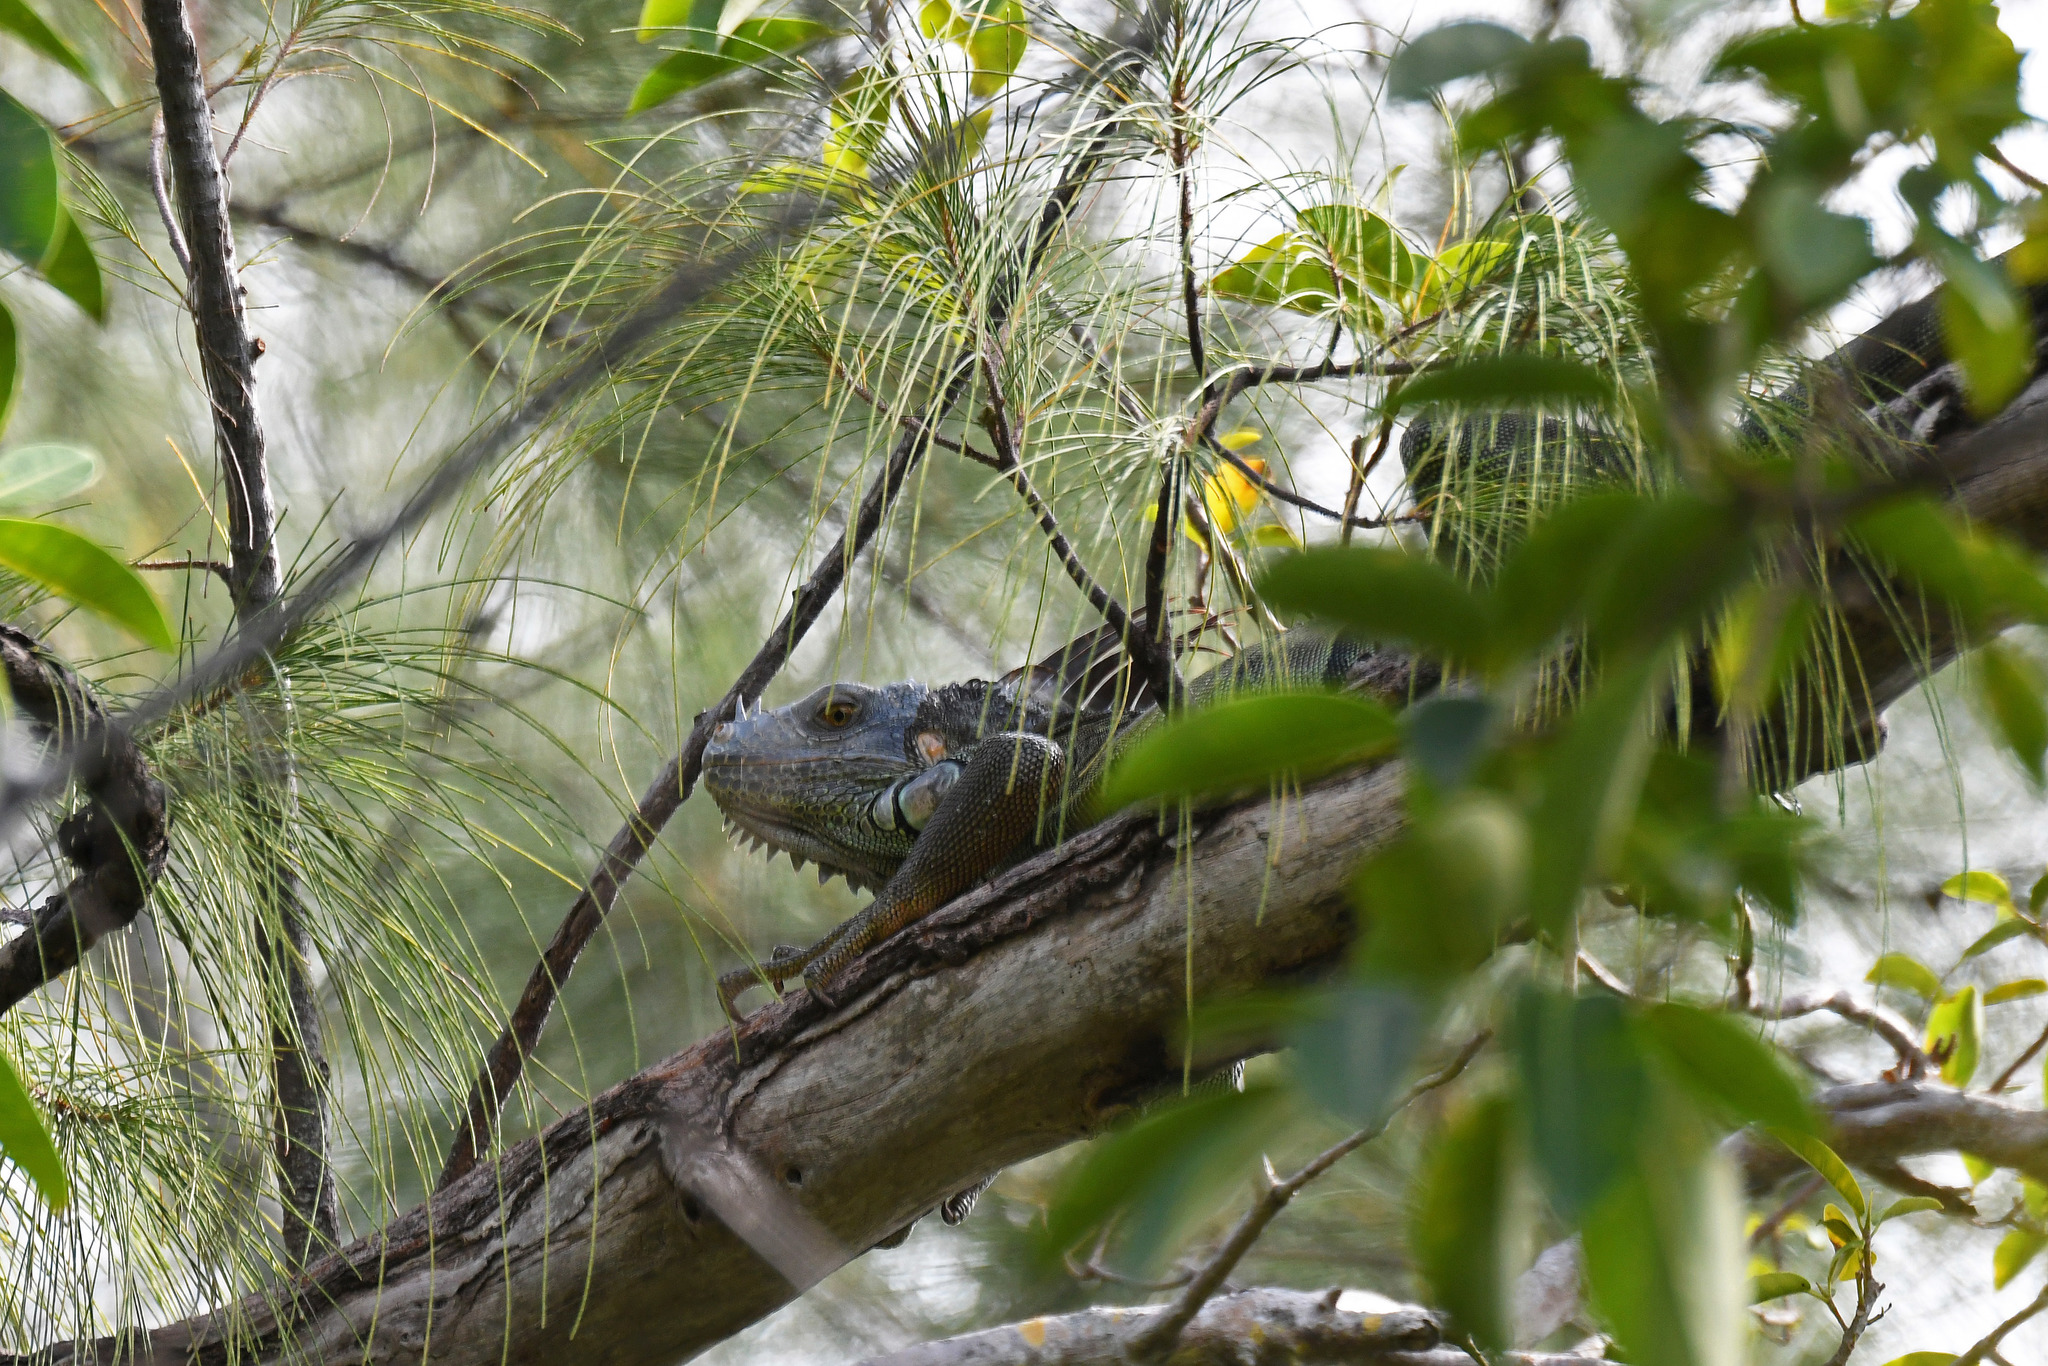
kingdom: Animalia
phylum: Chordata
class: Squamata
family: Iguanidae
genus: Iguana
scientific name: Iguana iguana
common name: Green iguana
